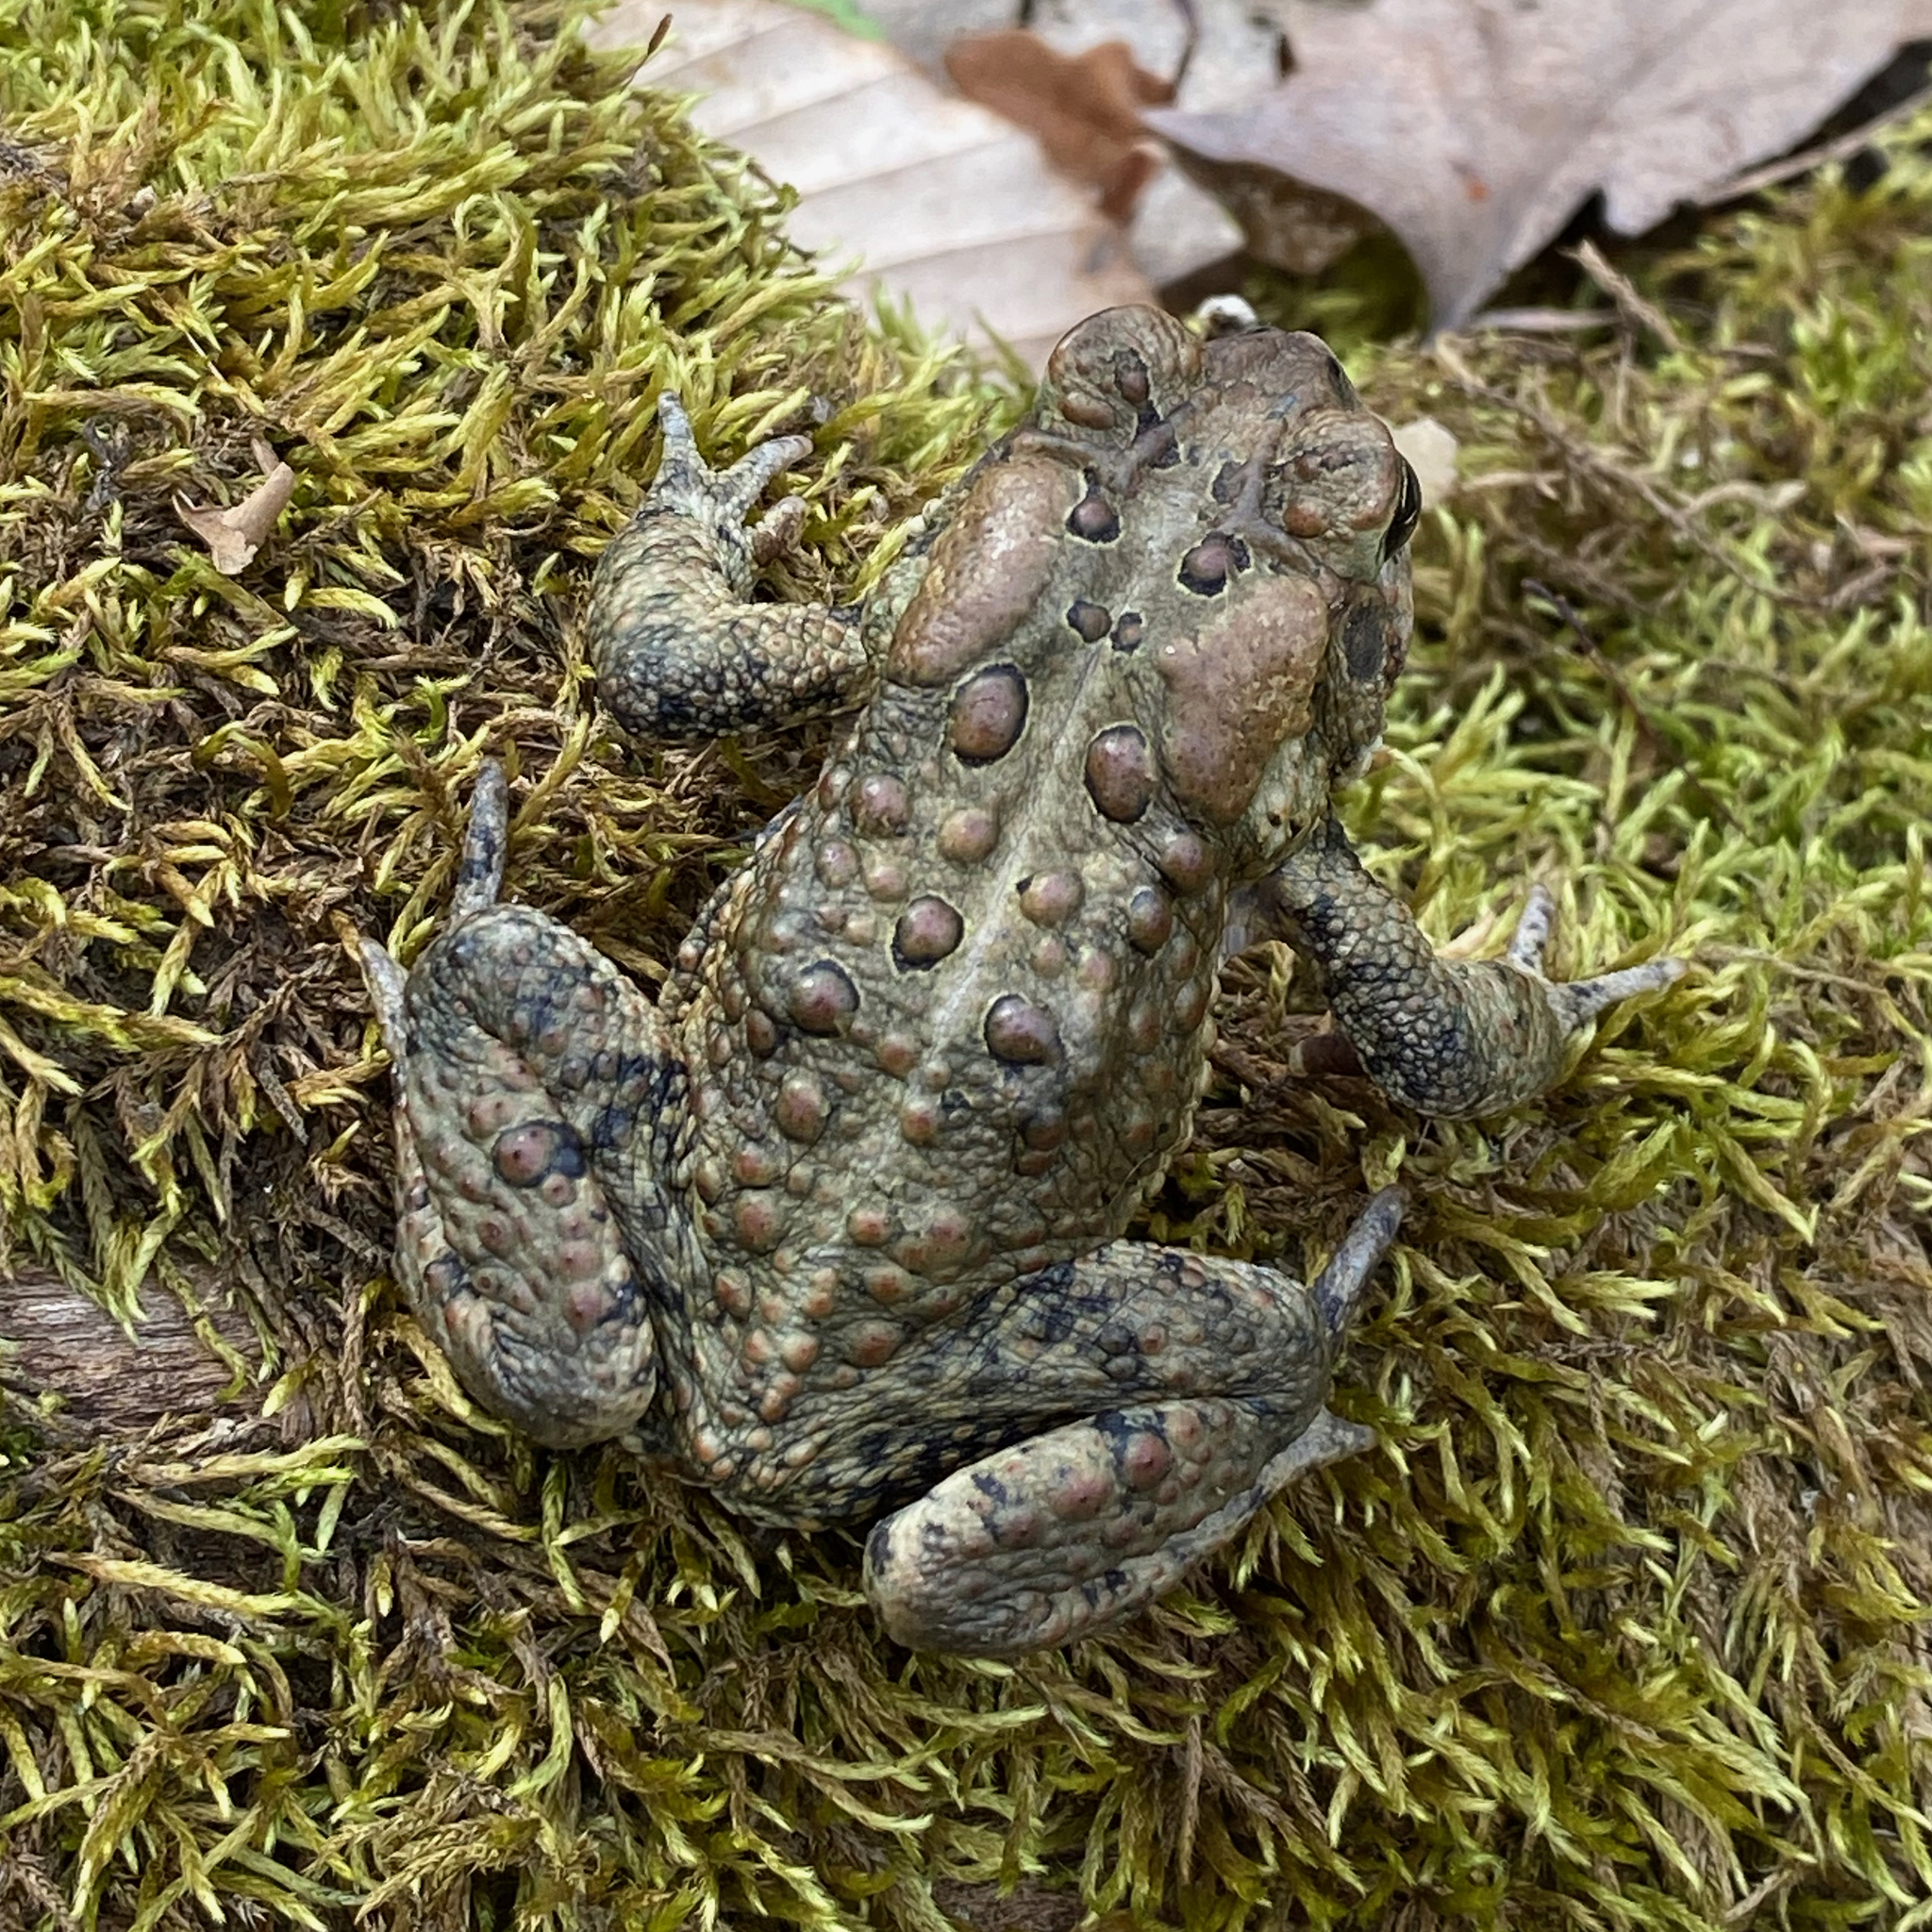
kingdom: Animalia
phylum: Chordata
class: Amphibia
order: Anura
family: Bufonidae
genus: Anaxyrus
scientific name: Anaxyrus americanus
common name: American toad
